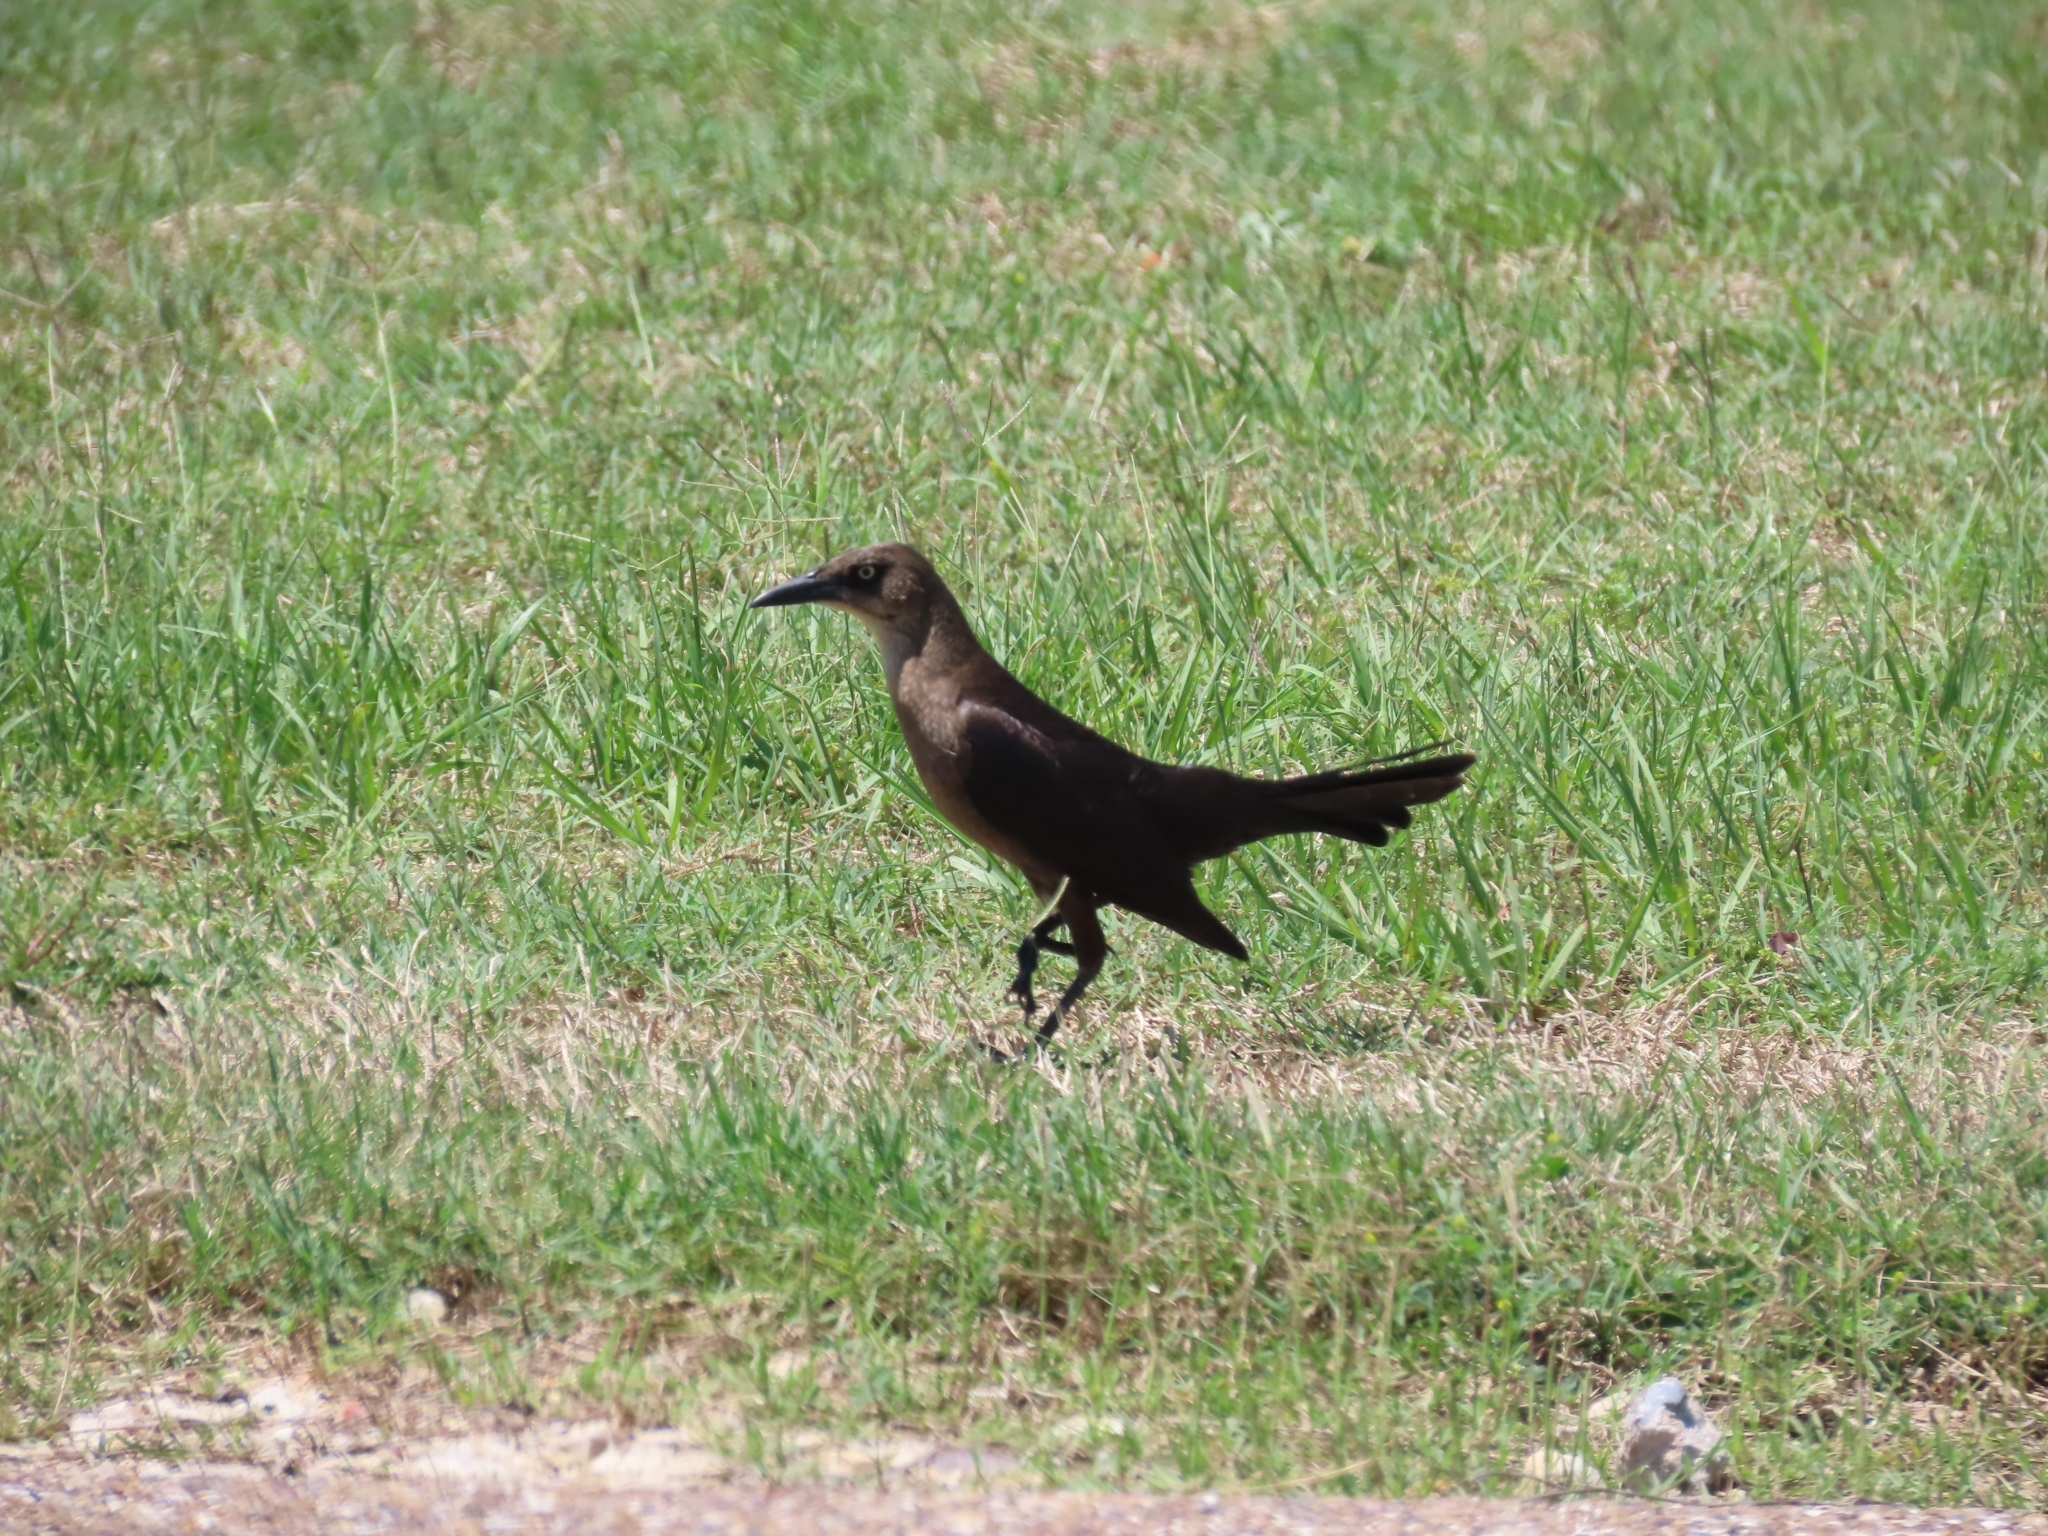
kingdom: Animalia
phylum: Chordata
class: Aves
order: Passeriformes
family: Icteridae
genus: Quiscalus
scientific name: Quiscalus mexicanus
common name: Great-tailed grackle
